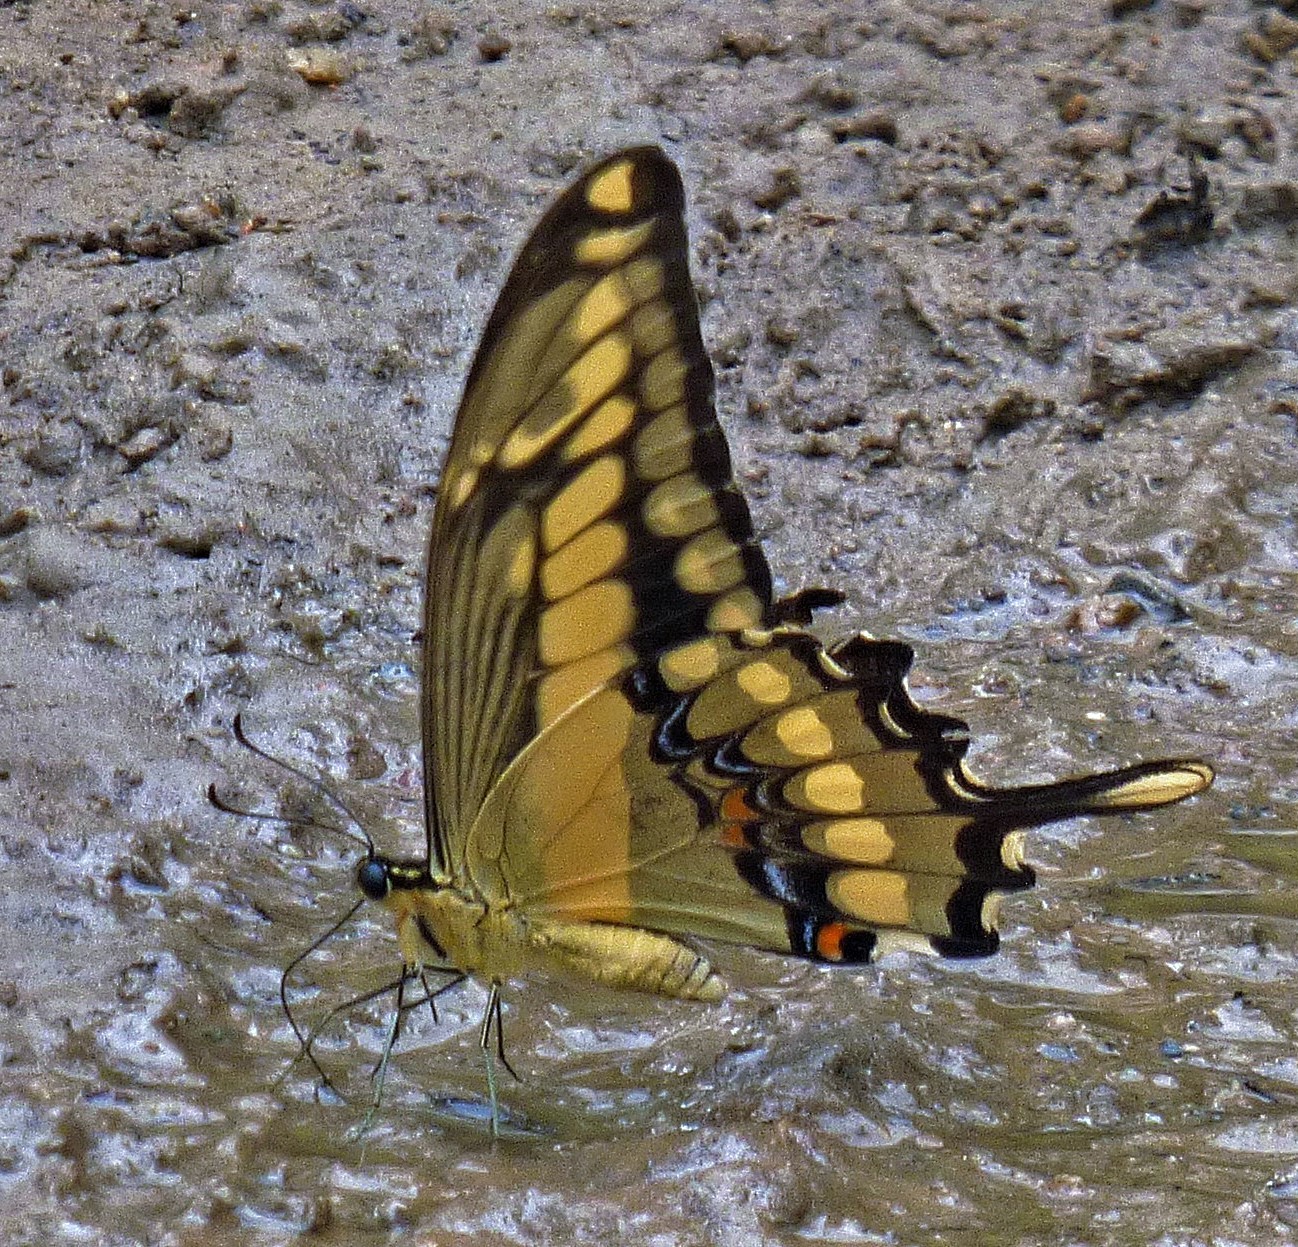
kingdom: Animalia
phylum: Arthropoda
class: Insecta
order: Lepidoptera
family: Papilionidae
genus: Papilio
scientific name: Papilio thoas
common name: King swallowtail
